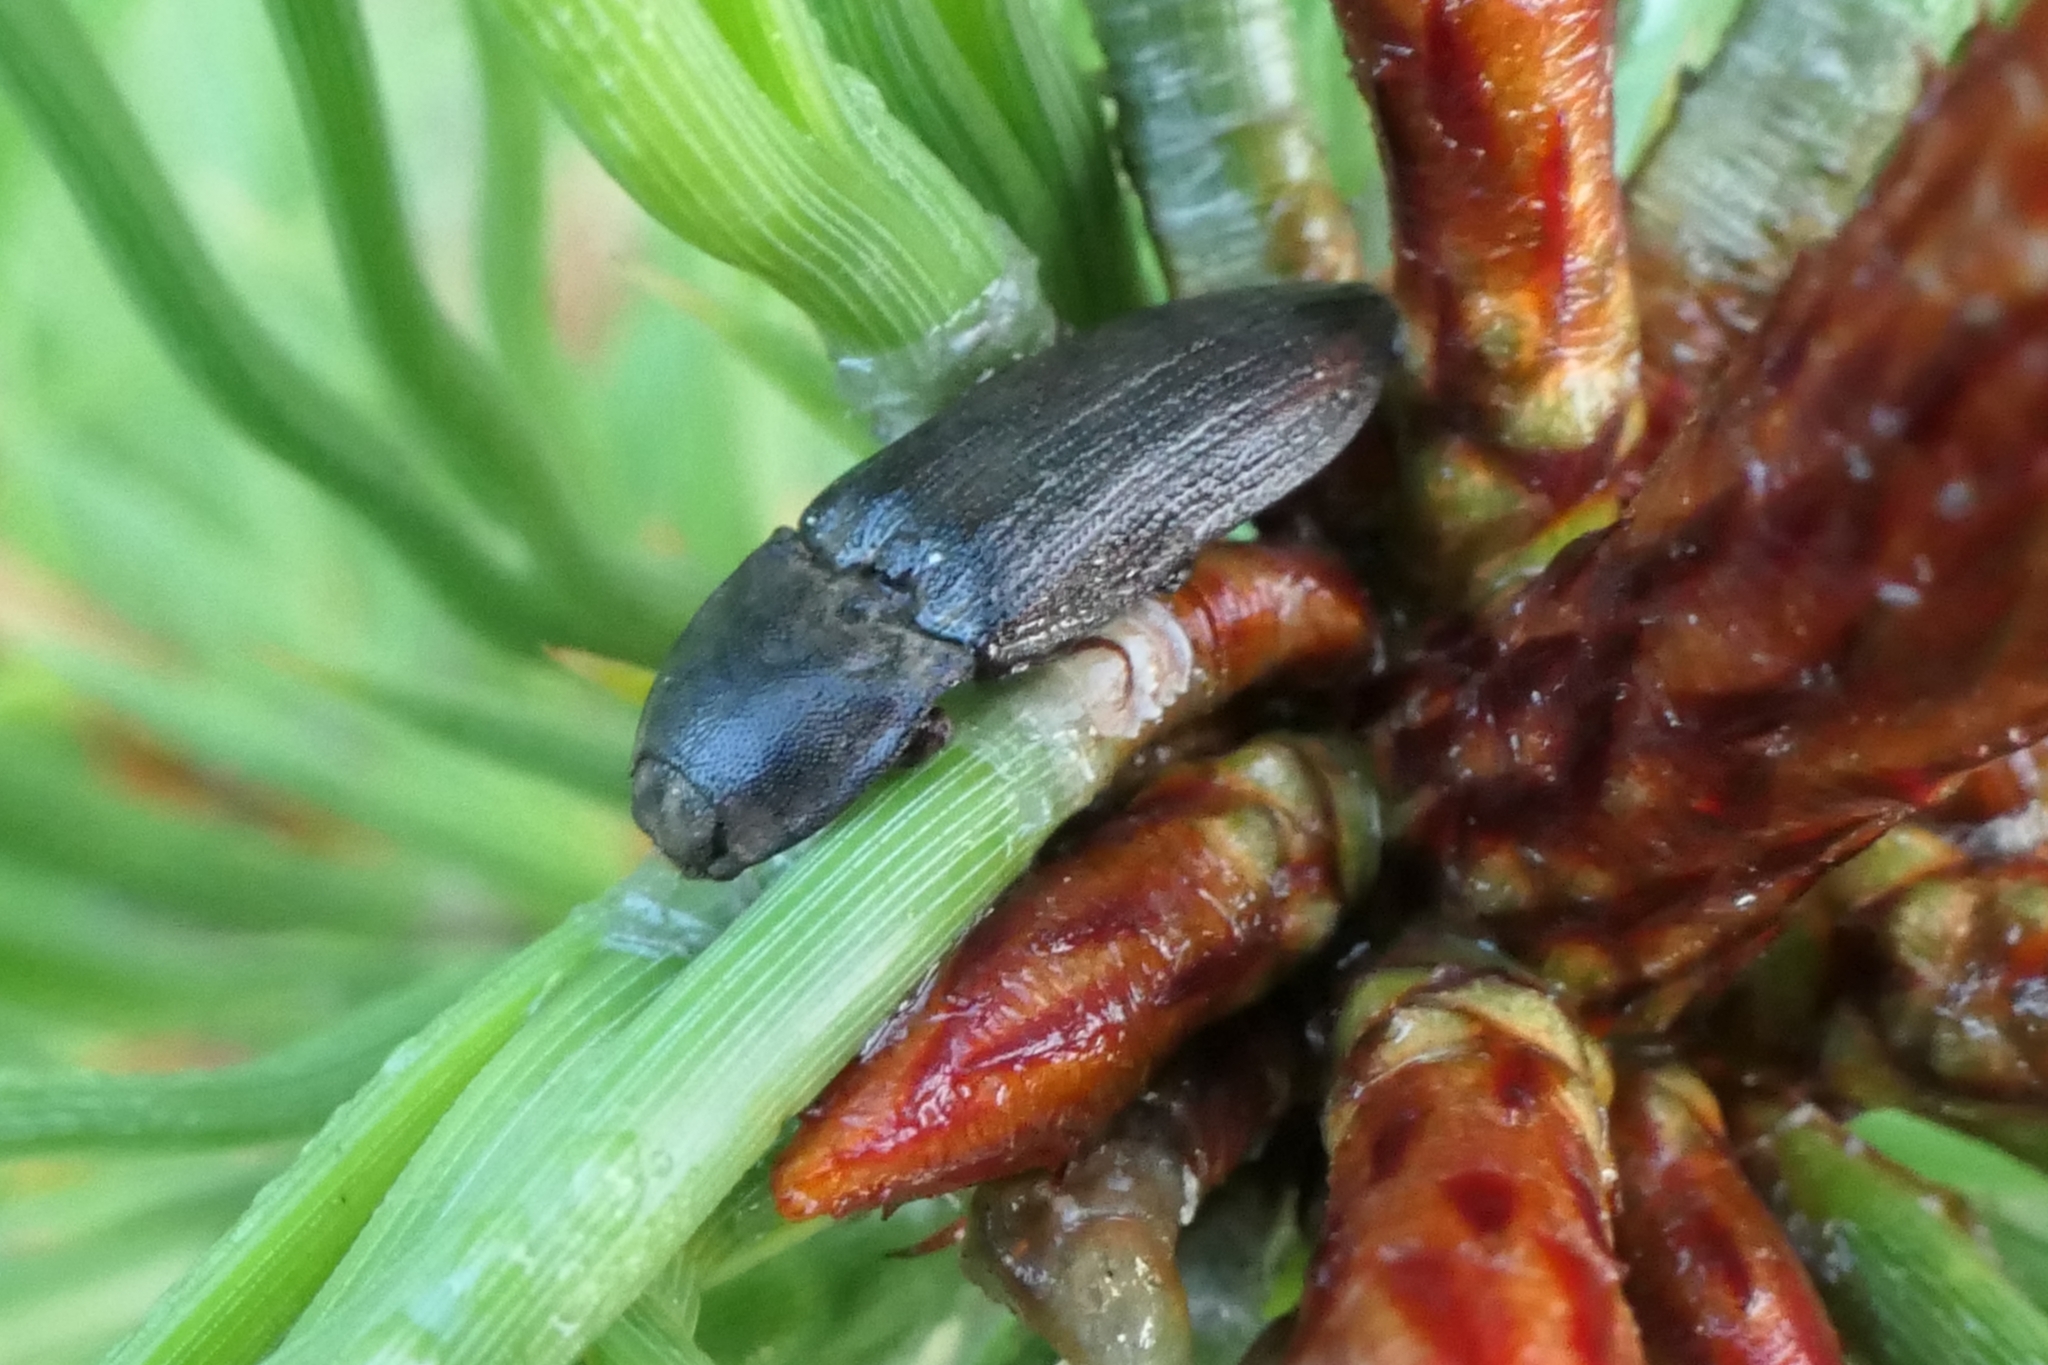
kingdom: Animalia
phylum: Arthropoda
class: Insecta
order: Coleoptera
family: Elateridae
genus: Agrypnus
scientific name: Agrypnus
